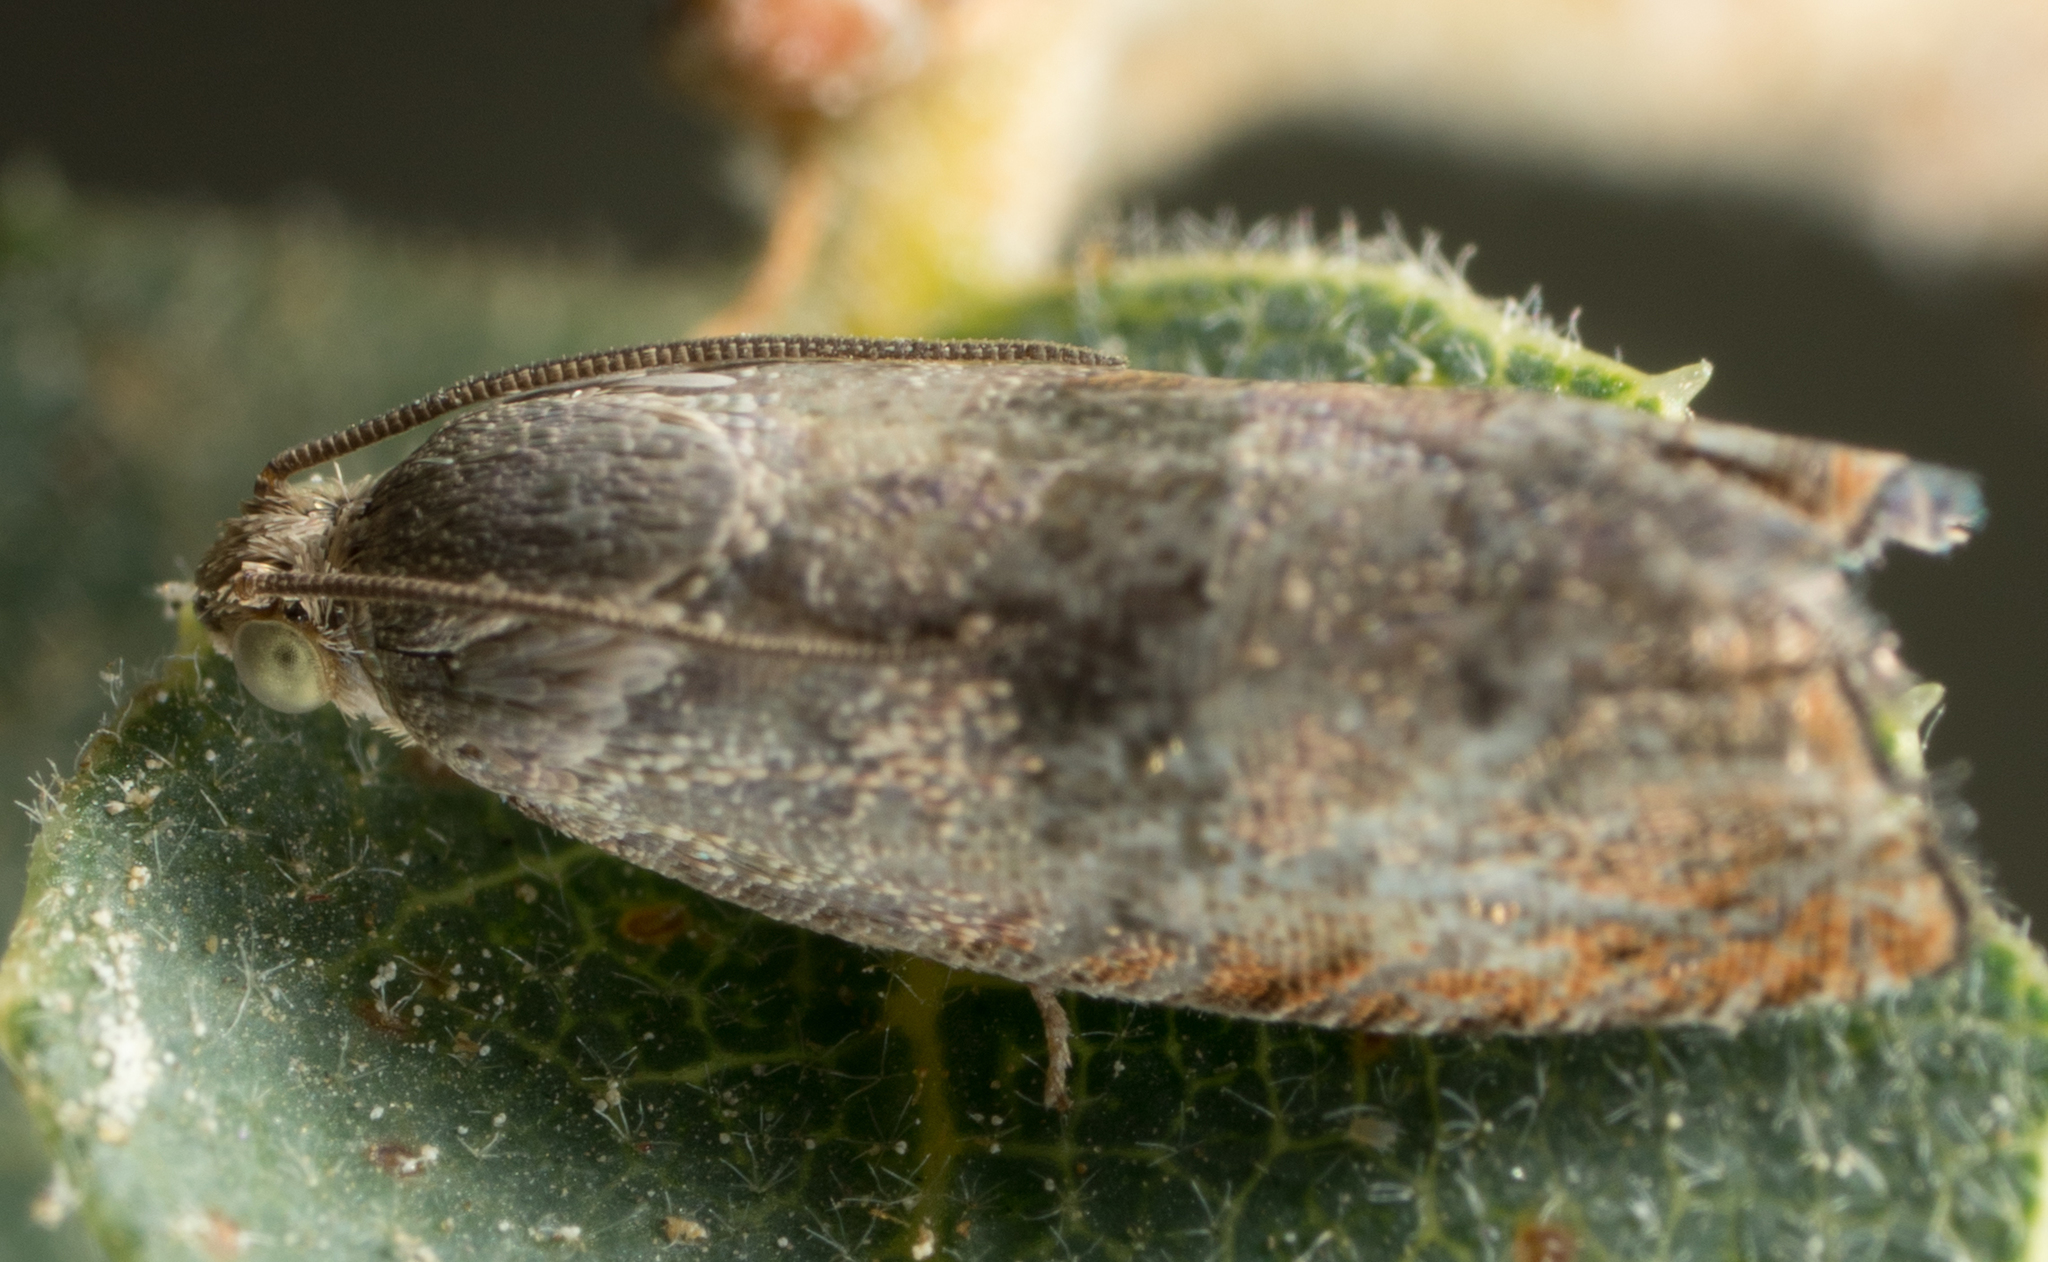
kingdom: Animalia
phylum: Arthropoda
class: Insecta
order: Lepidoptera
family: Tortricidae
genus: Cydia
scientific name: Cydia latiferreana
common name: Filbertworm moth
